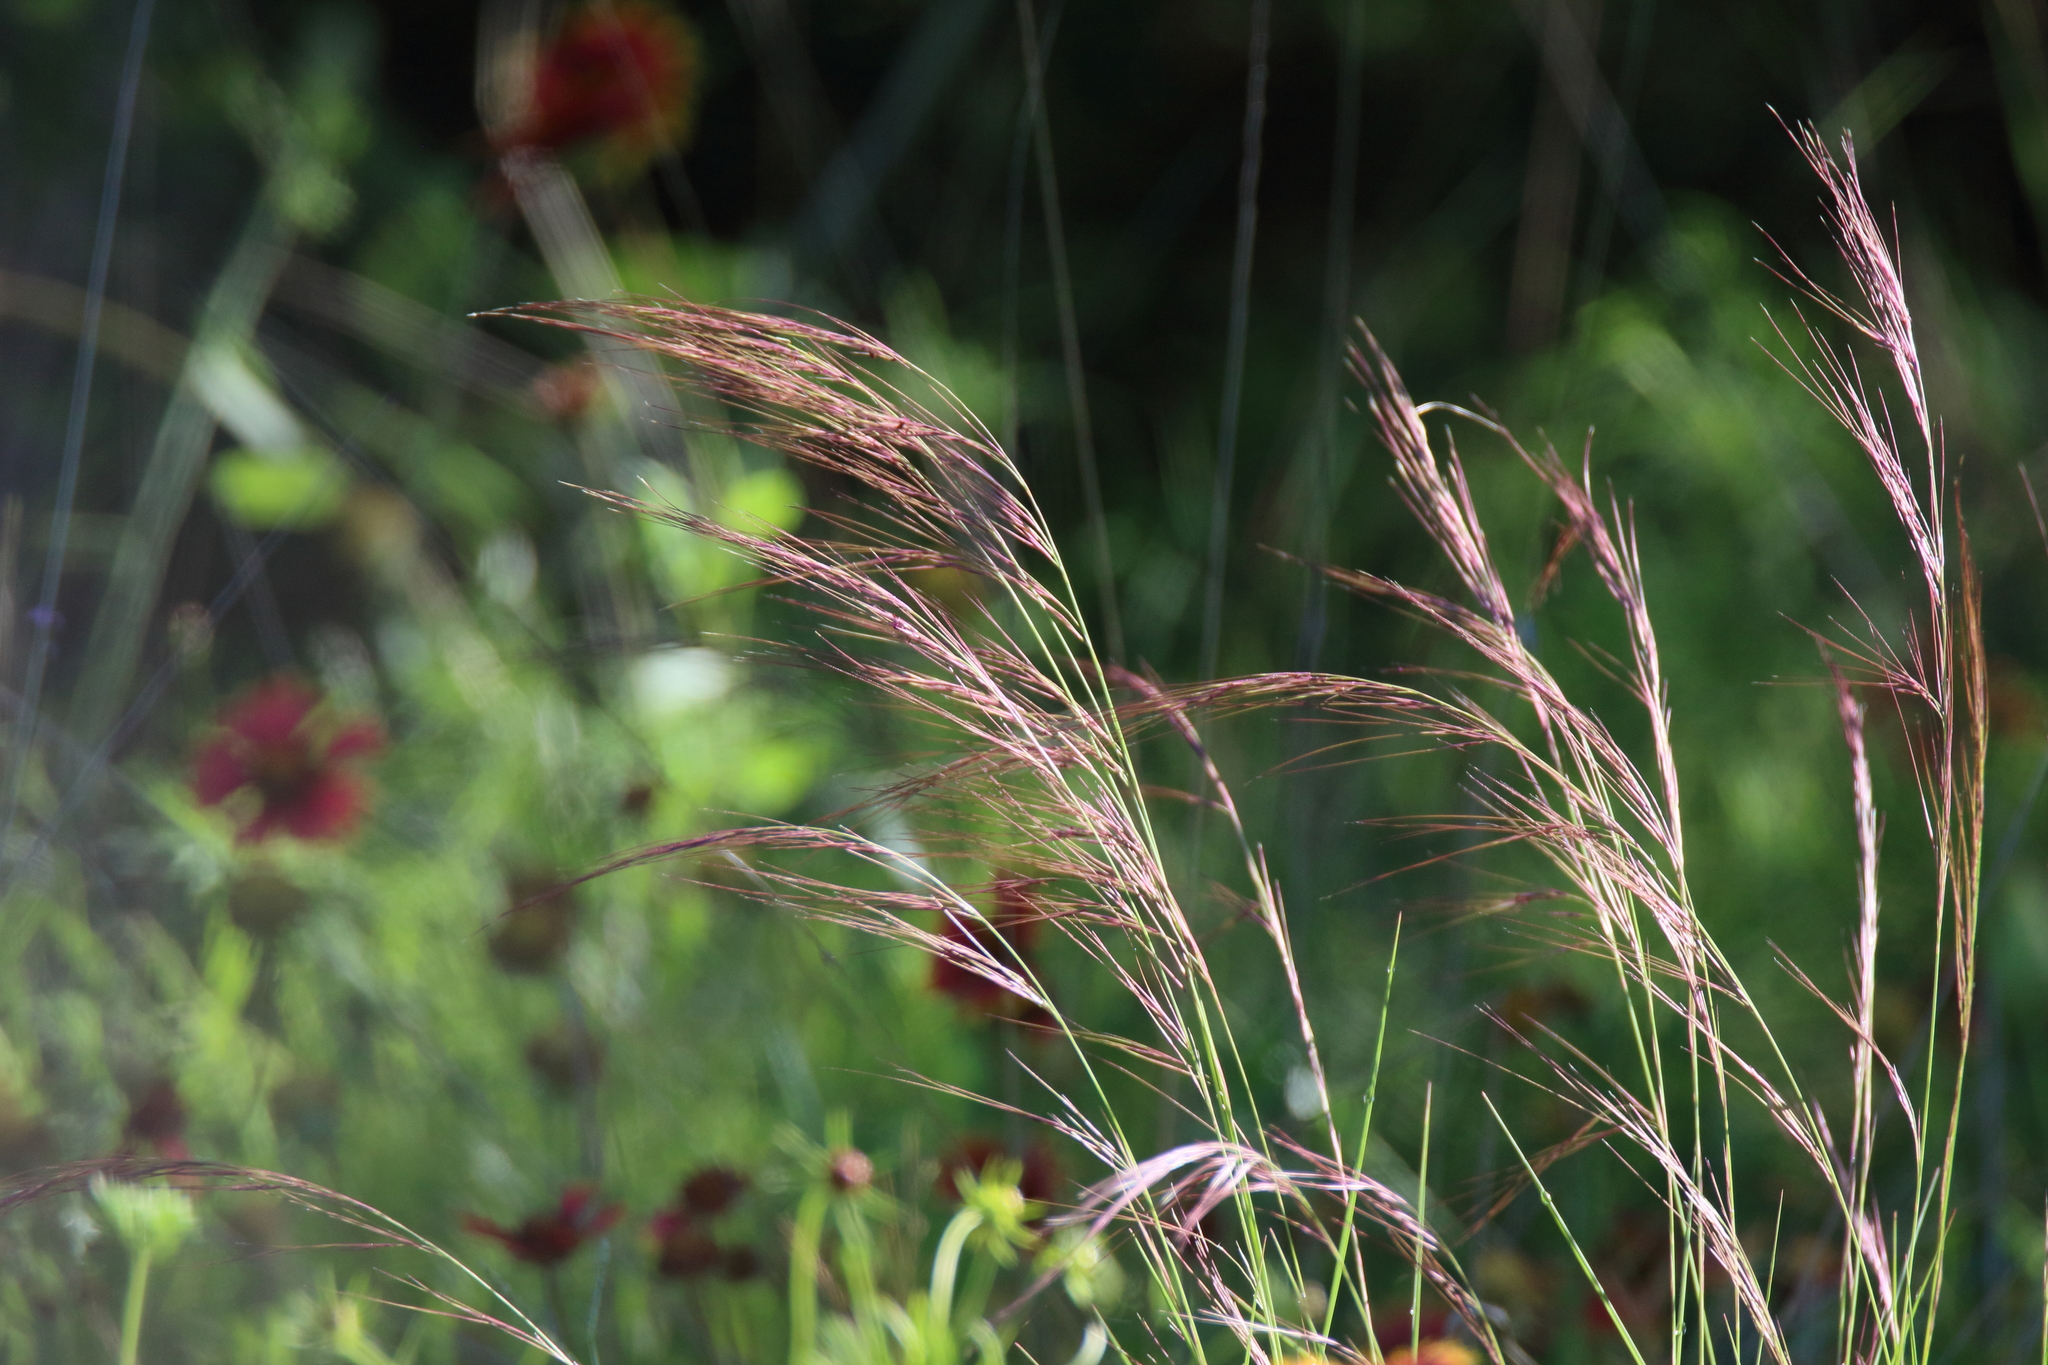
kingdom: Plantae
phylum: Tracheophyta
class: Liliopsida
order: Poales
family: Poaceae
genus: Aristida
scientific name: Aristida purpurea
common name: Purple threeawn
